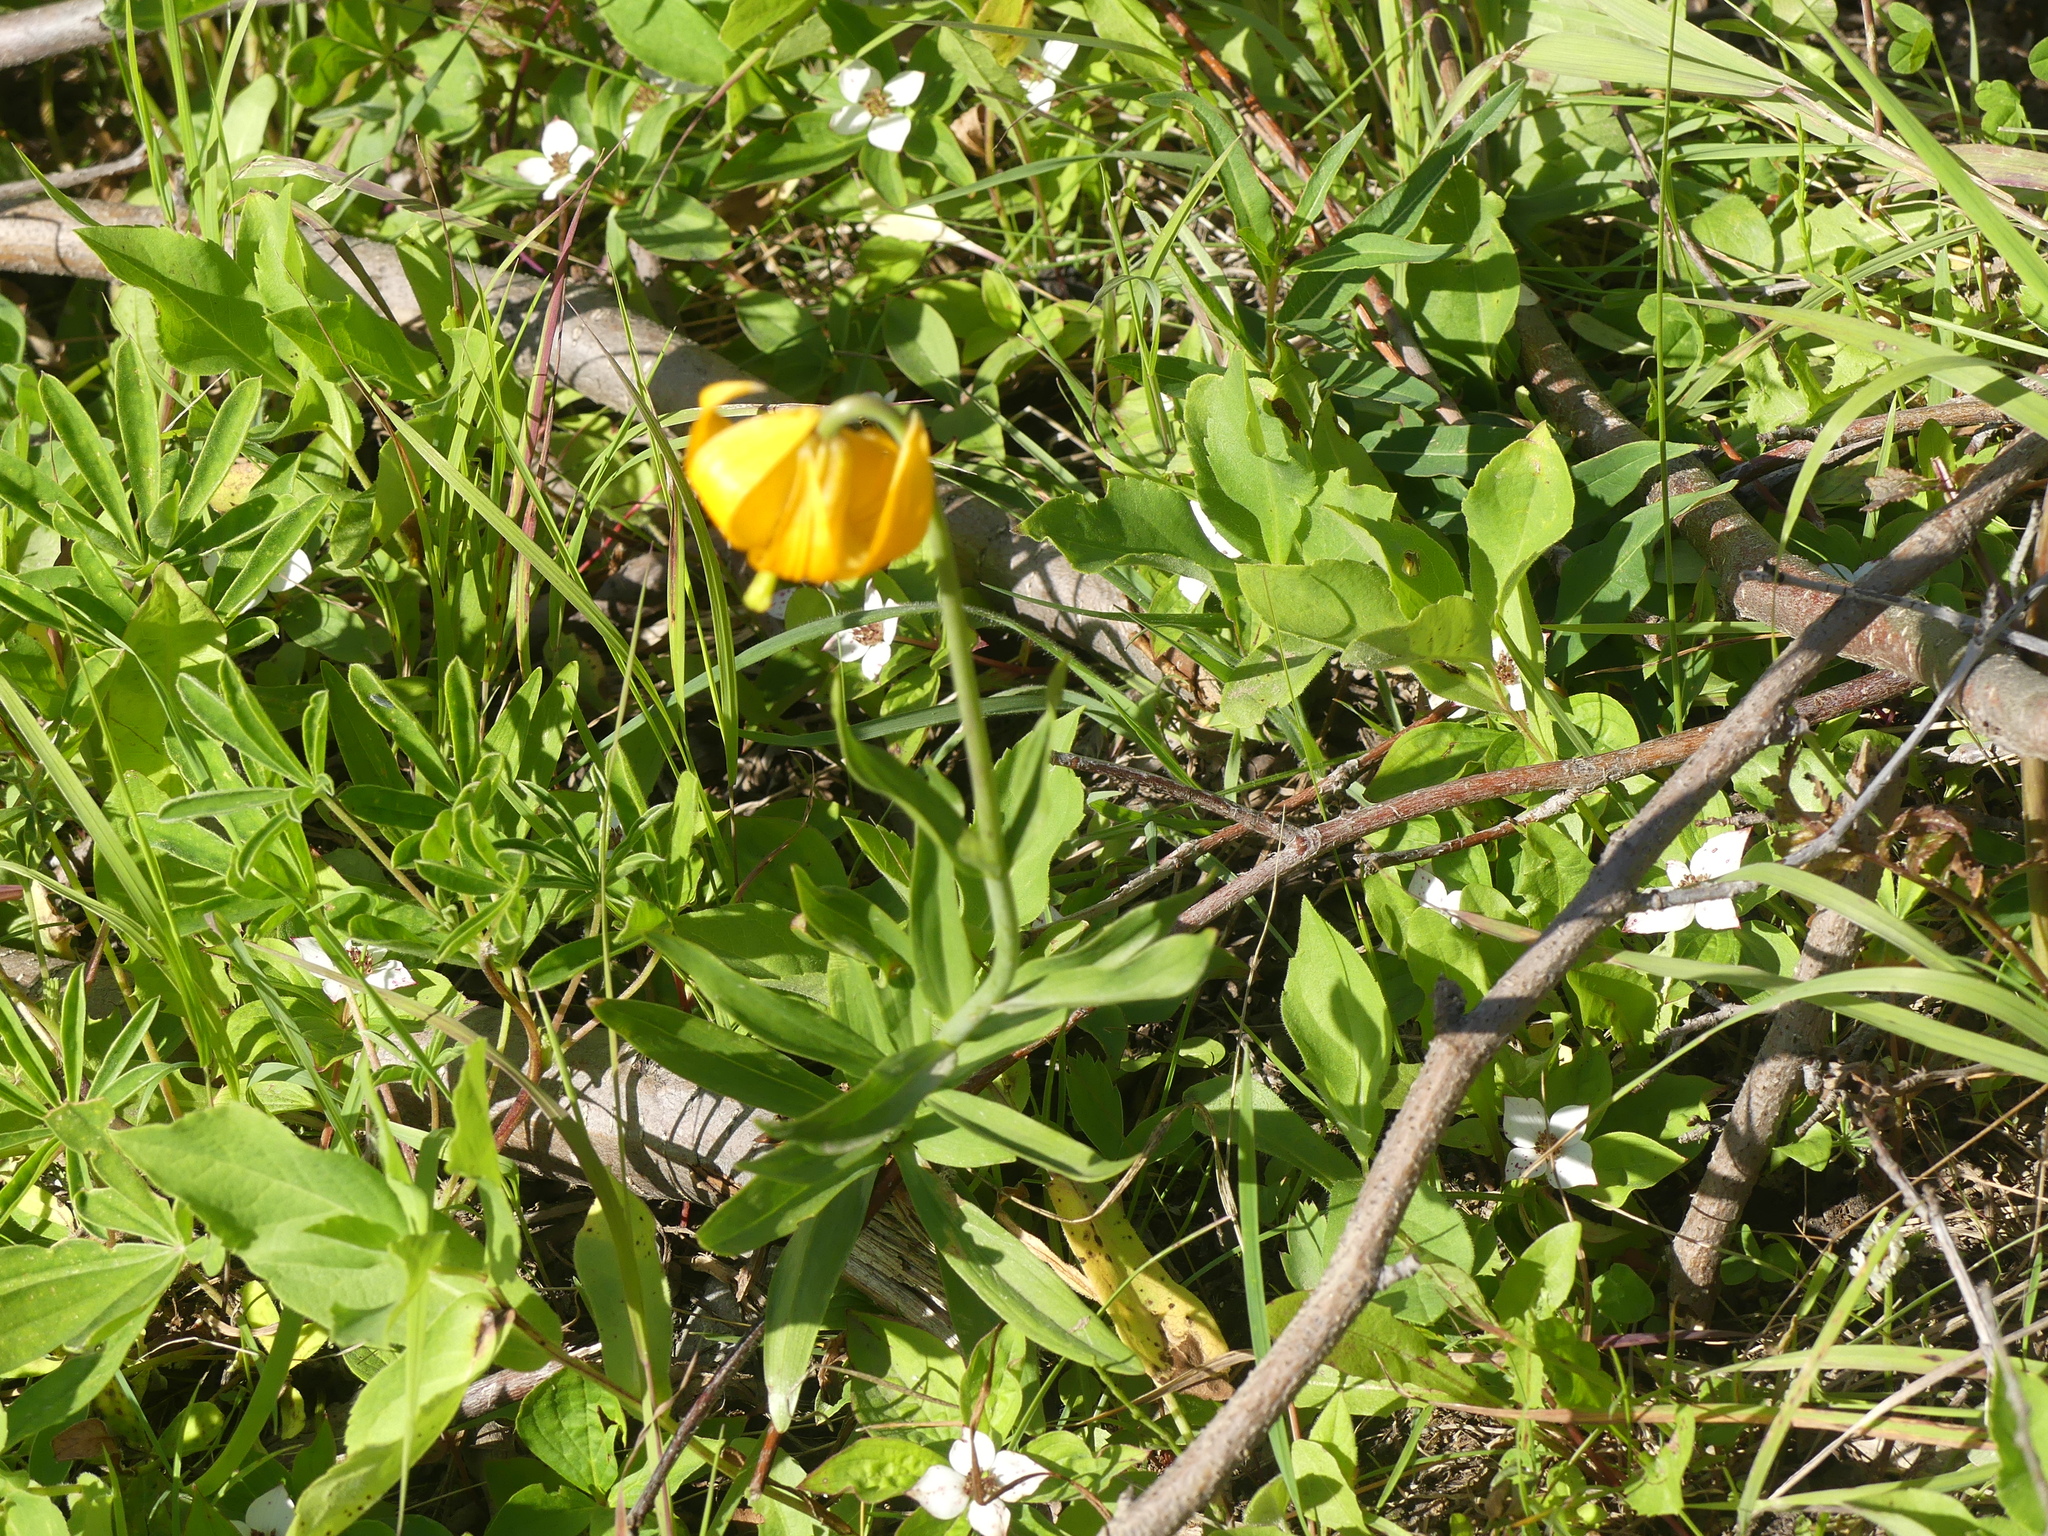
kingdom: Plantae
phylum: Tracheophyta
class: Liliopsida
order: Liliales
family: Liliaceae
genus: Lilium
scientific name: Lilium columbianum
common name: Columbia lily
